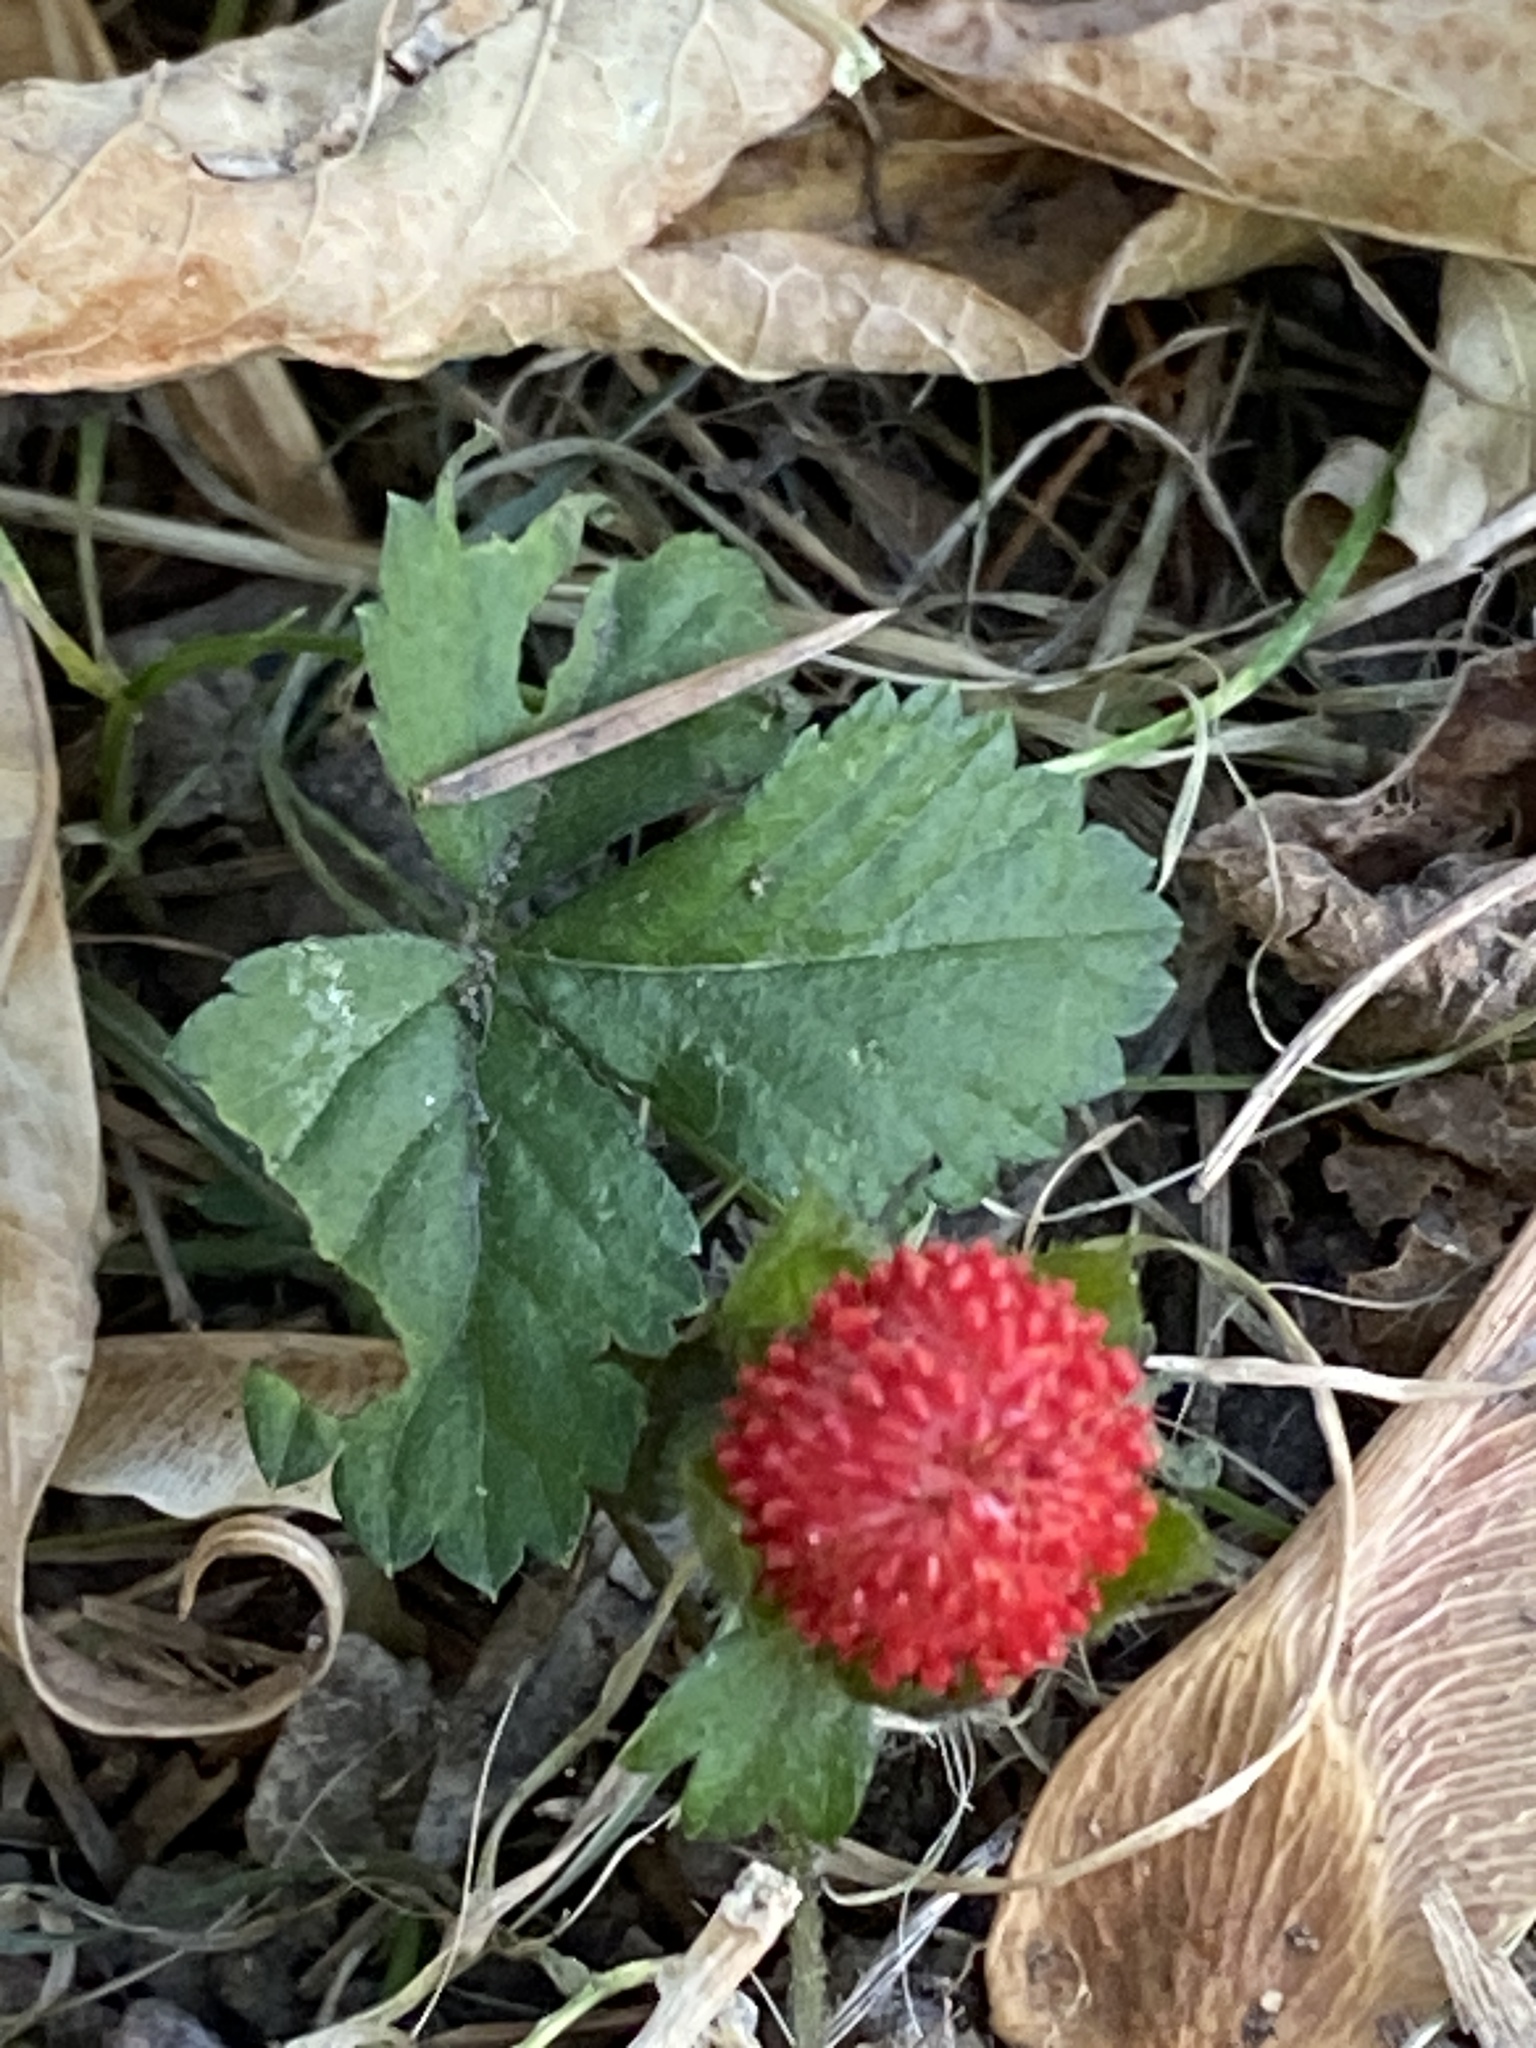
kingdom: Plantae
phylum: Tracheophyta
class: Magnoliopsida
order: Rosales
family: Rosaceae
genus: Potentilla
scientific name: Potentilla indica
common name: Yellow-flowered strawberry
